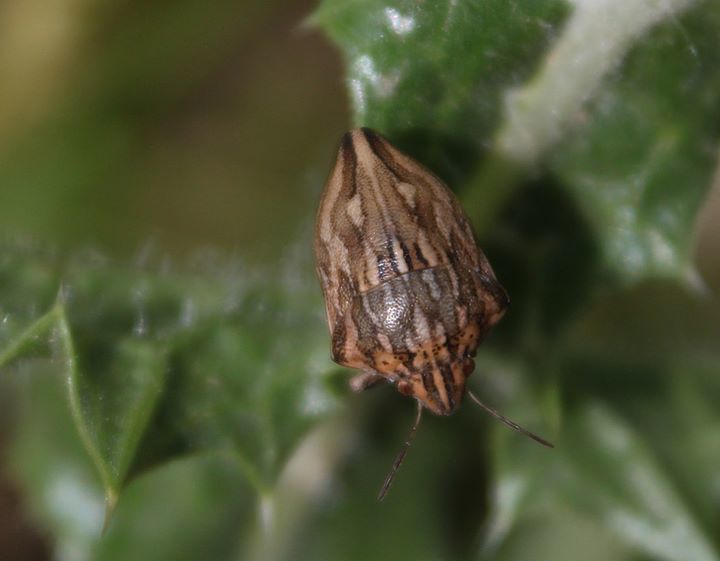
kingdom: Animalia
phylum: Arthropoda
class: Insecta
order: Hemiptera
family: Scutelleridae
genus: Odontotarsus
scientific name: Odontotarsus robustus
